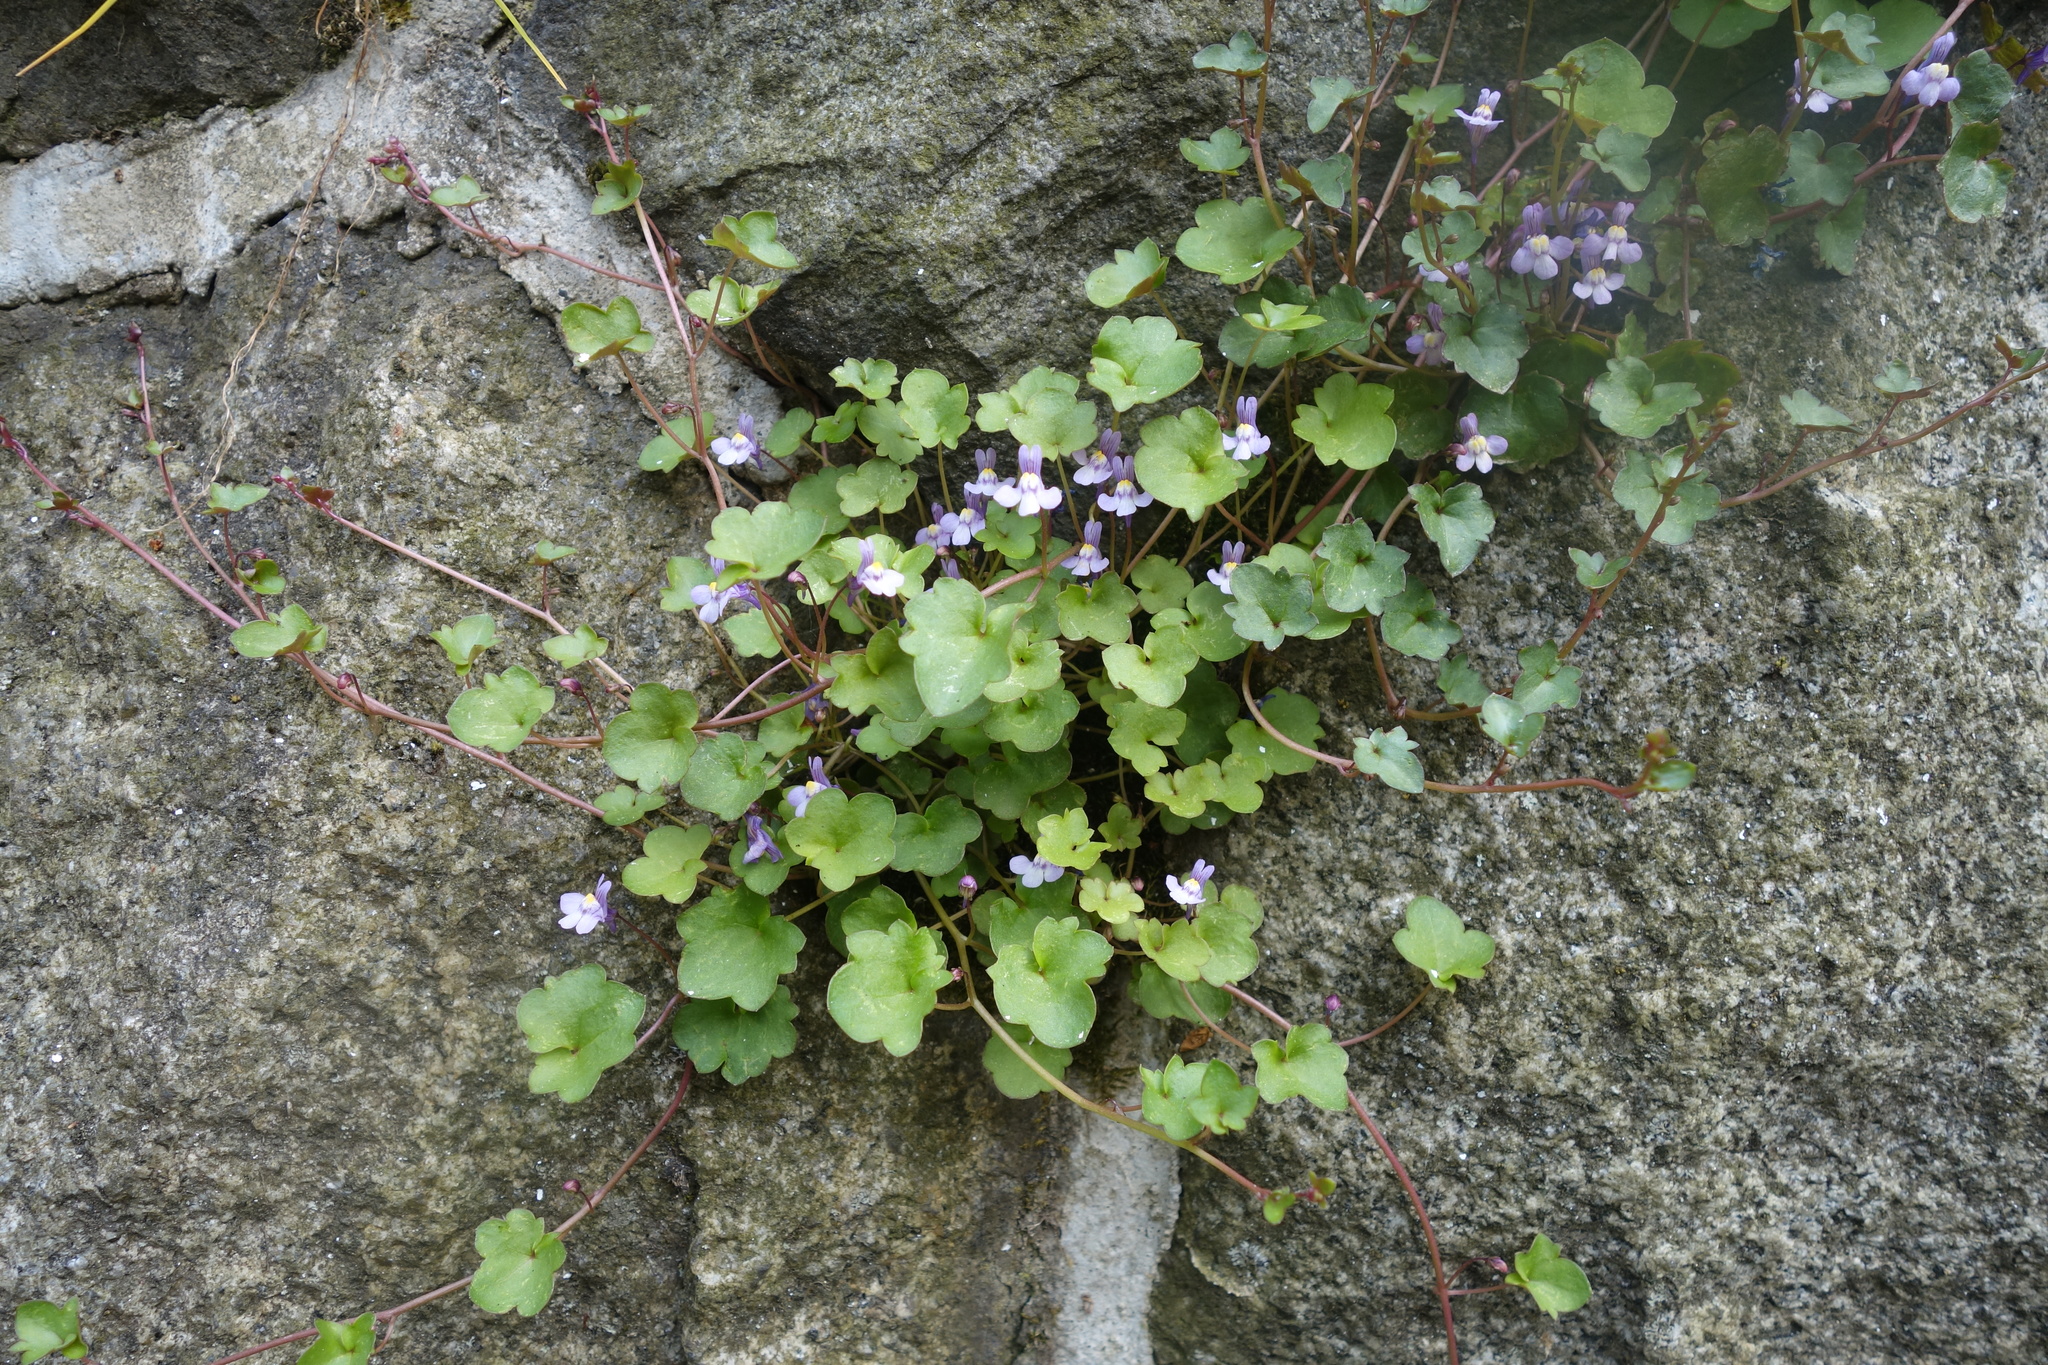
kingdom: Plantae
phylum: Tracheophyta
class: Magnoliopsida
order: Lamiales
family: Plantaginaceae
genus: Cymbalaria
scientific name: Cymbalaria muralis
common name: Ivy-leaved toadflax
